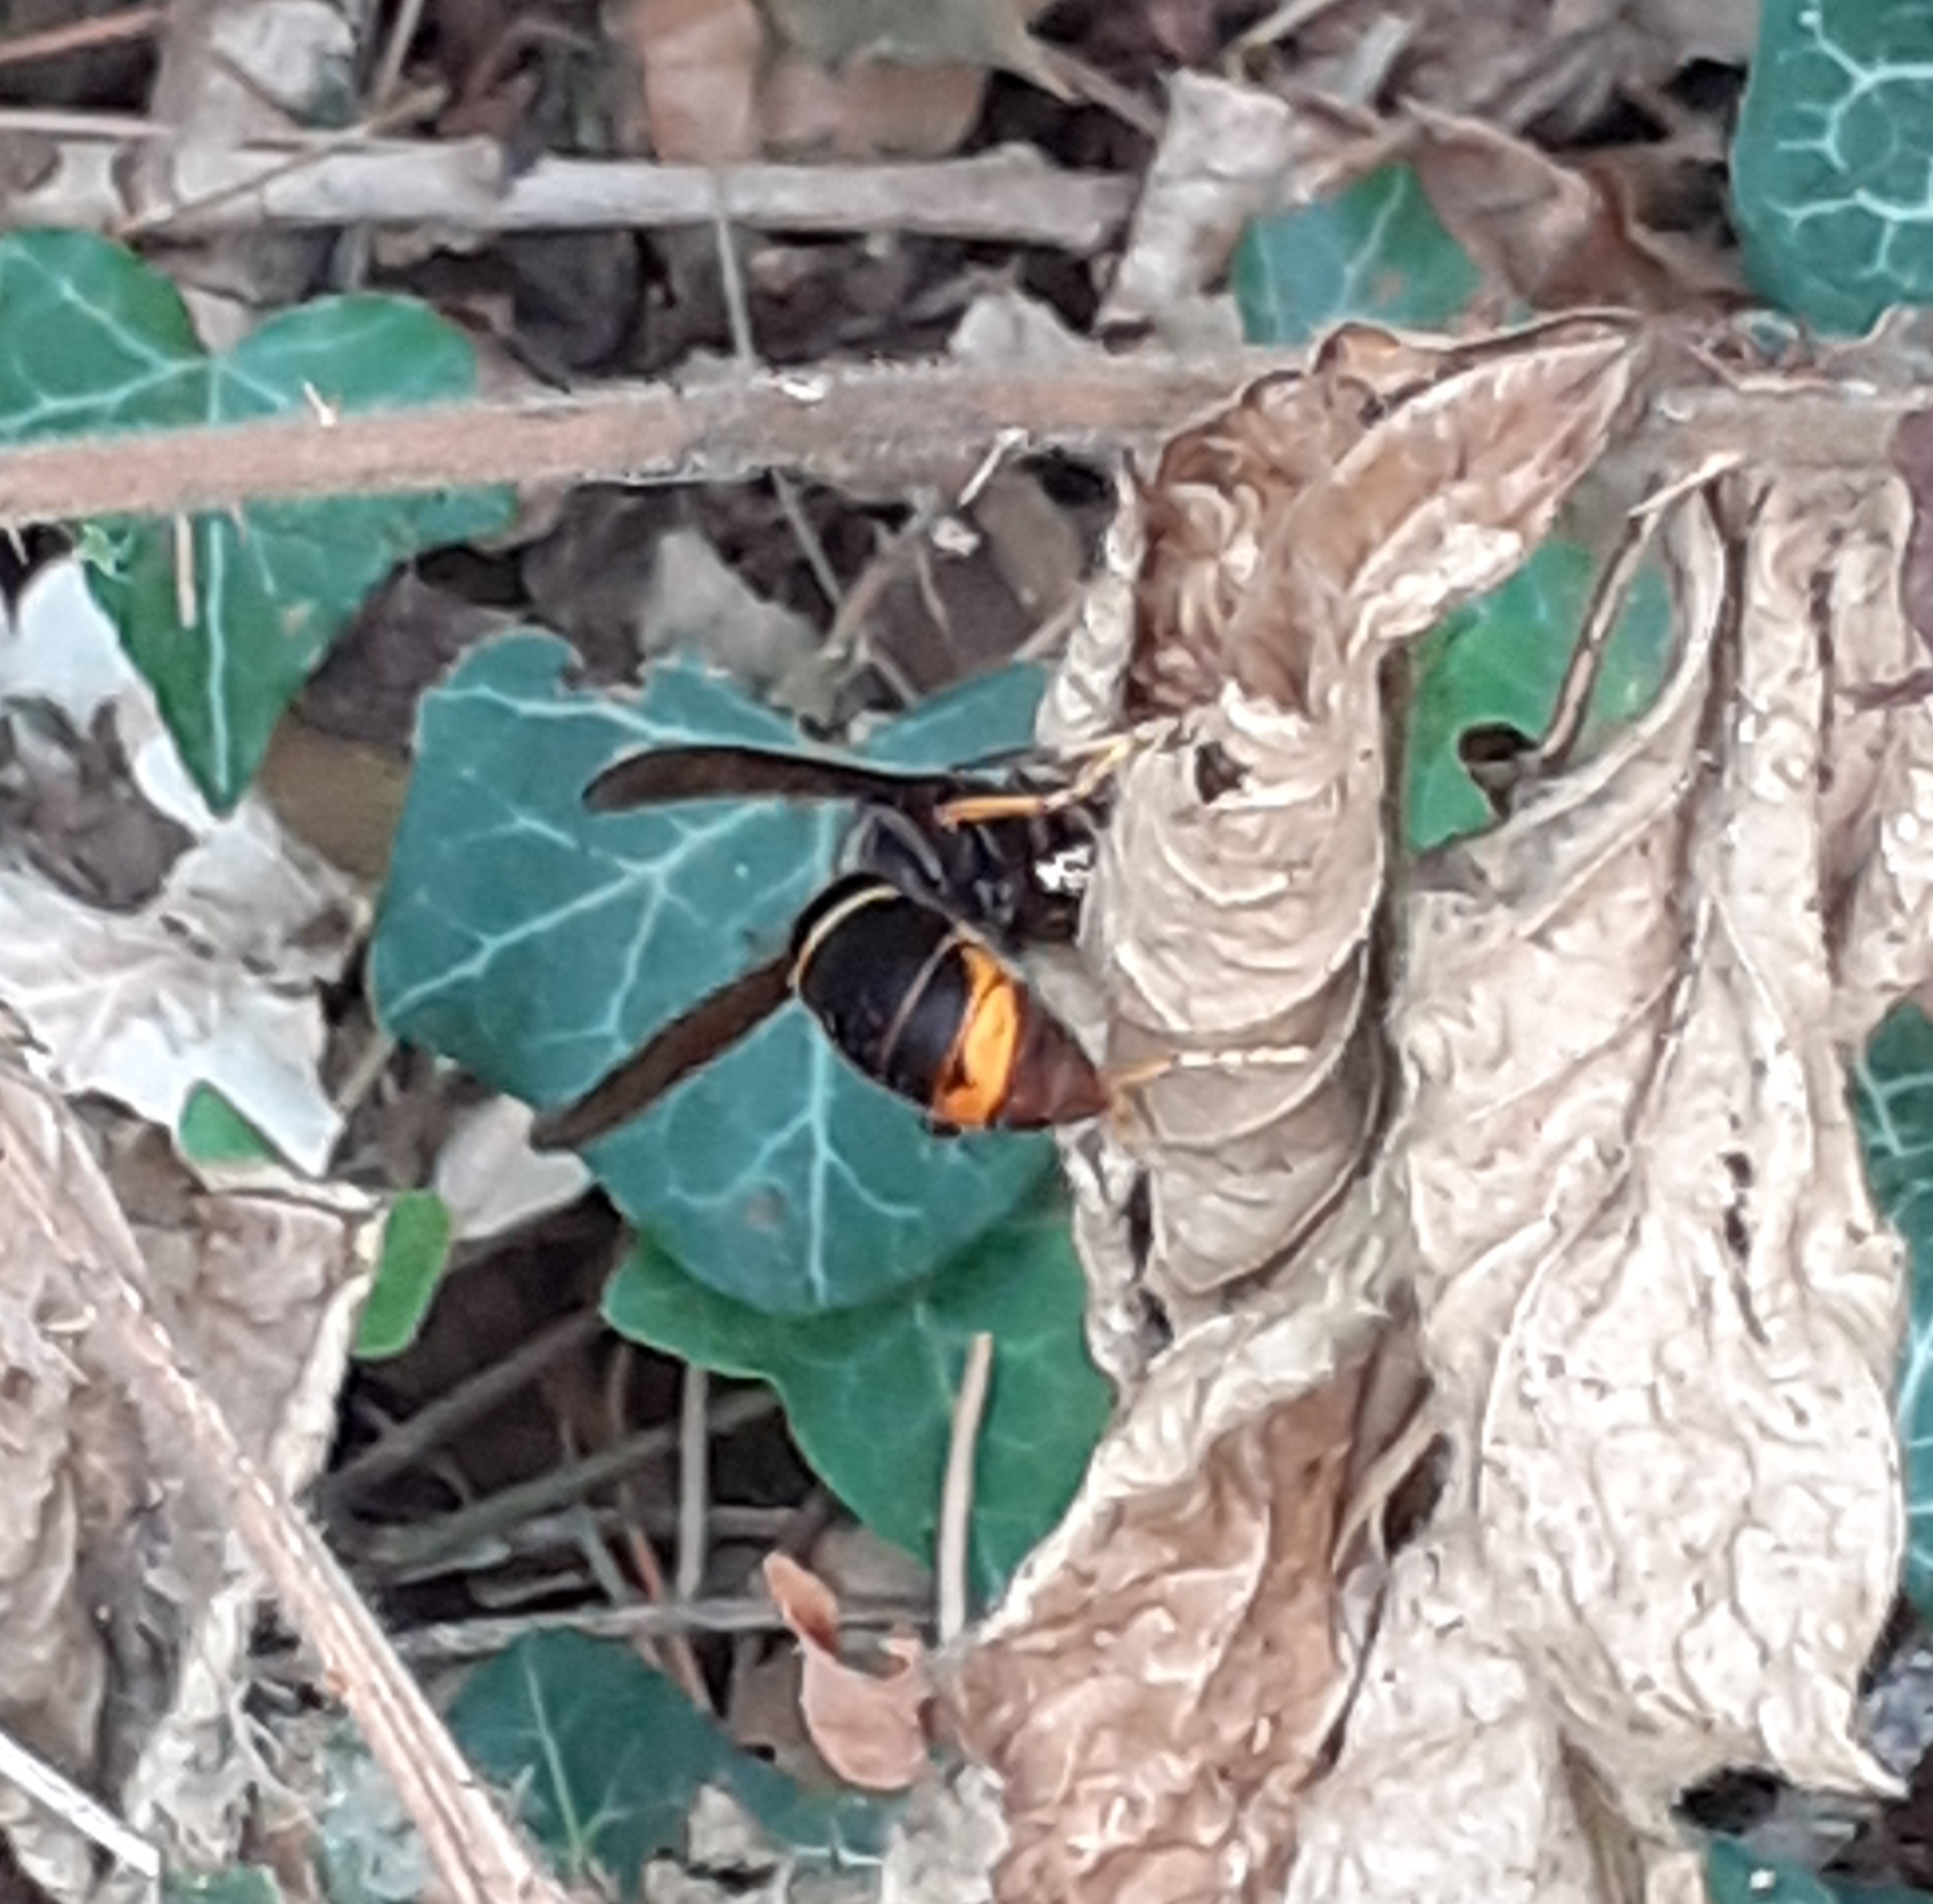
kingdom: Animalia
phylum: Arthropoda
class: Insecta
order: Hymenoptera
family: Vespidae
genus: Vespa
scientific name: Vespa velutina
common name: Asian hornet
